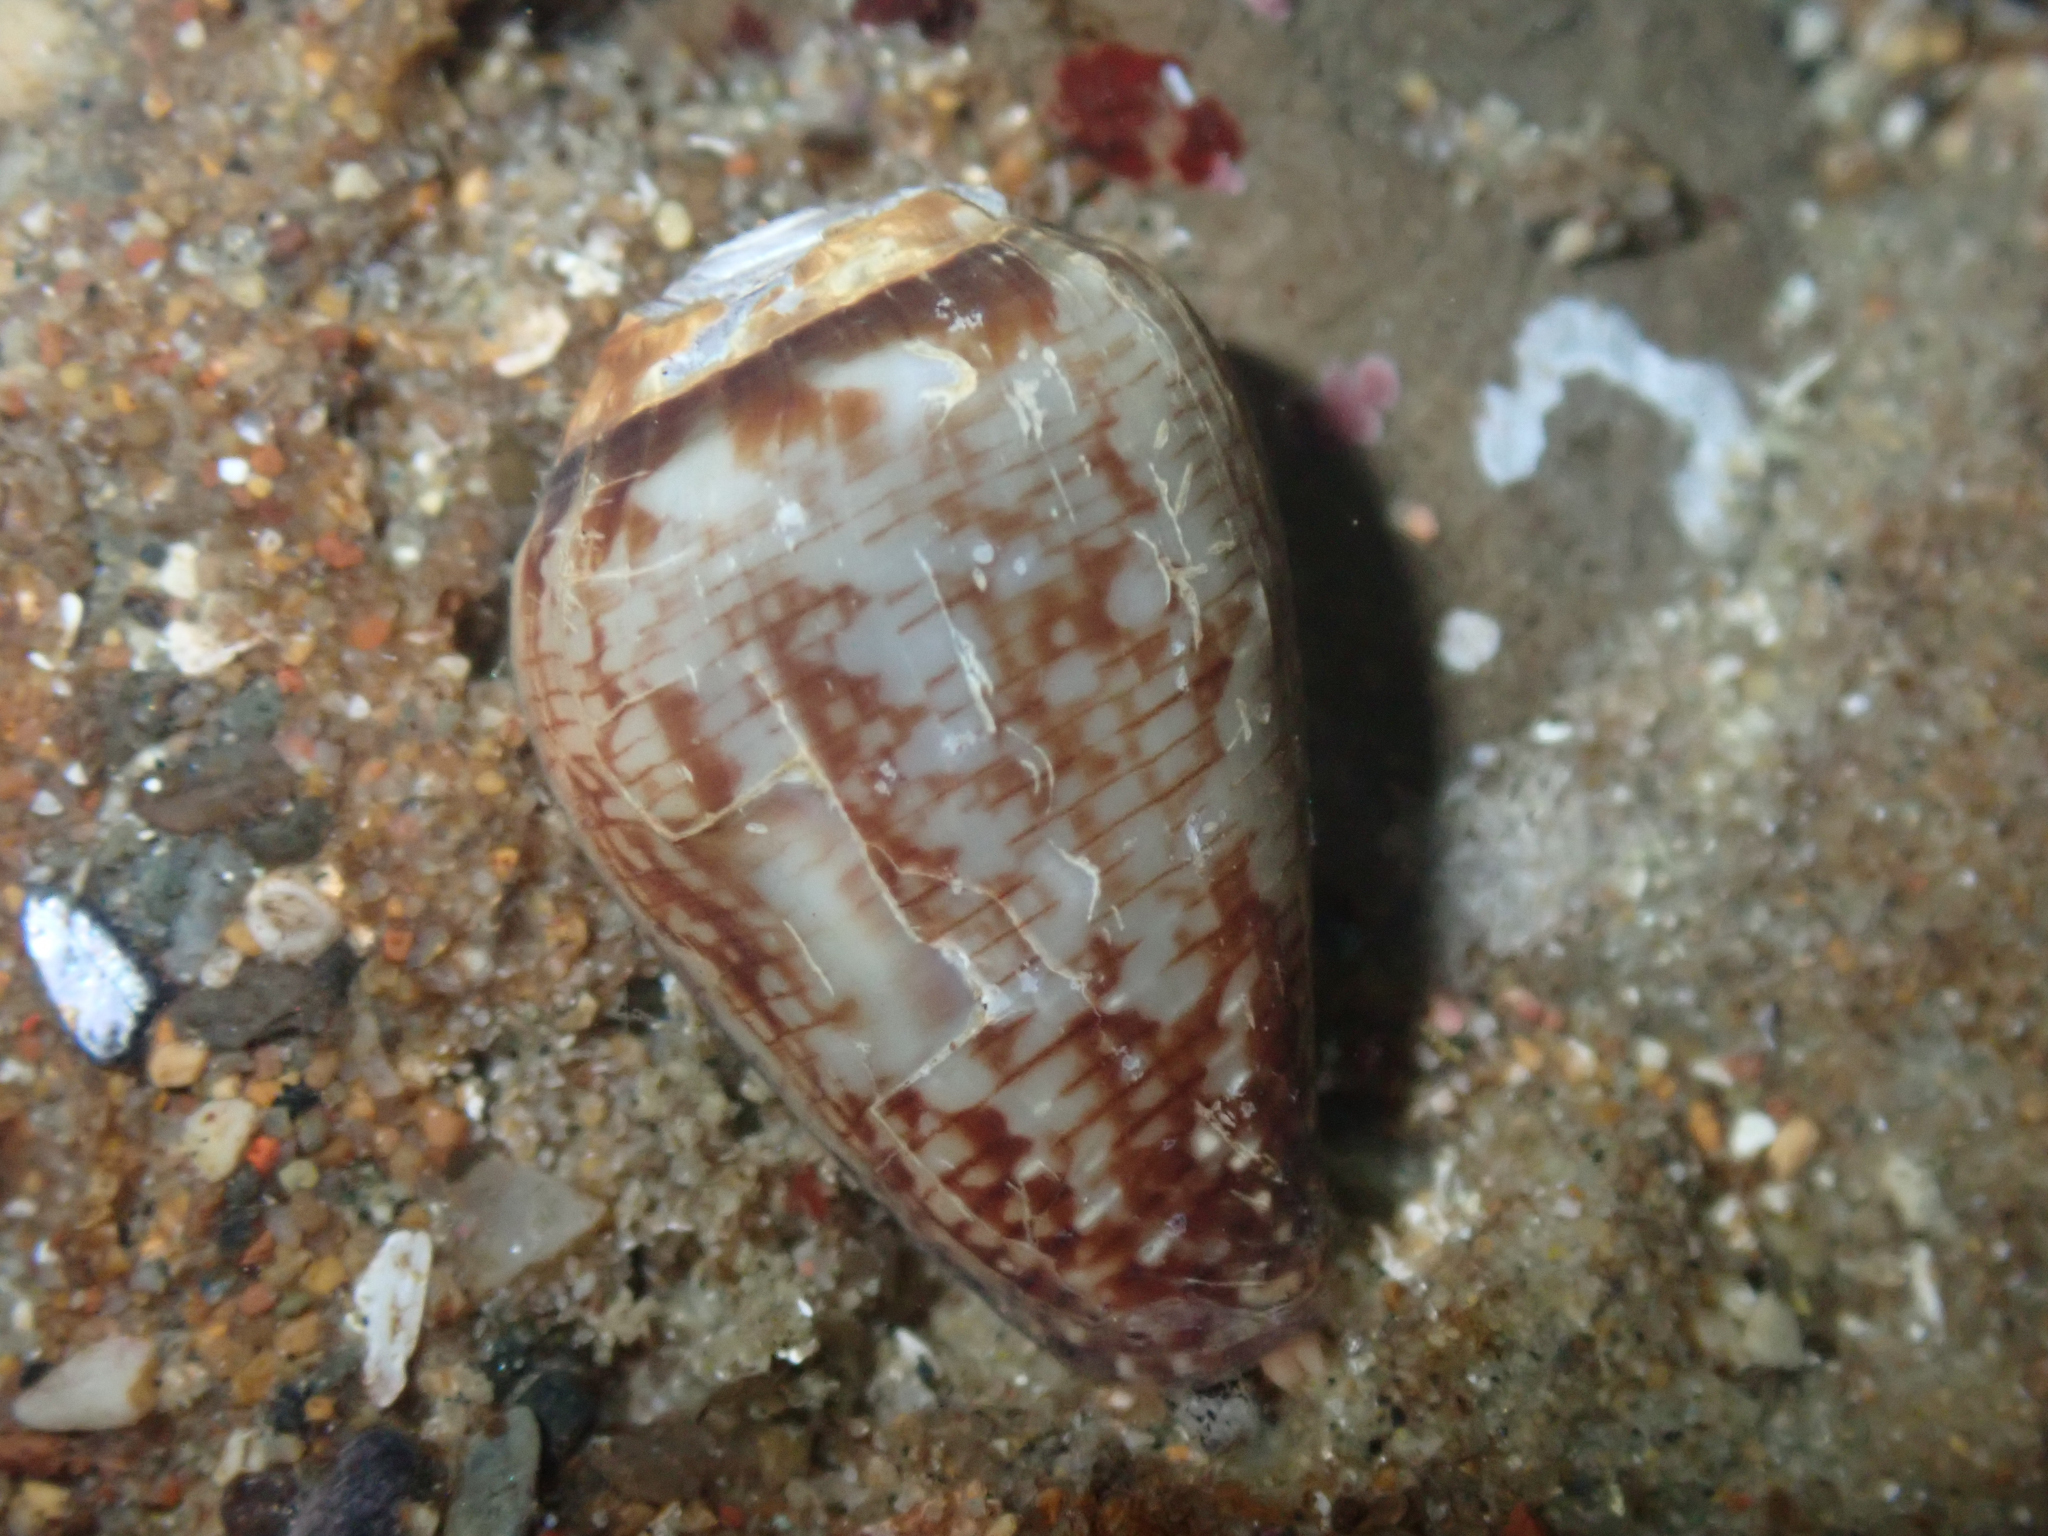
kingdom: Animalia
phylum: Mollusca
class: Gastropoda
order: Neogastropoda
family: Conidae
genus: Californiconus
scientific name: Californiconus californicus
